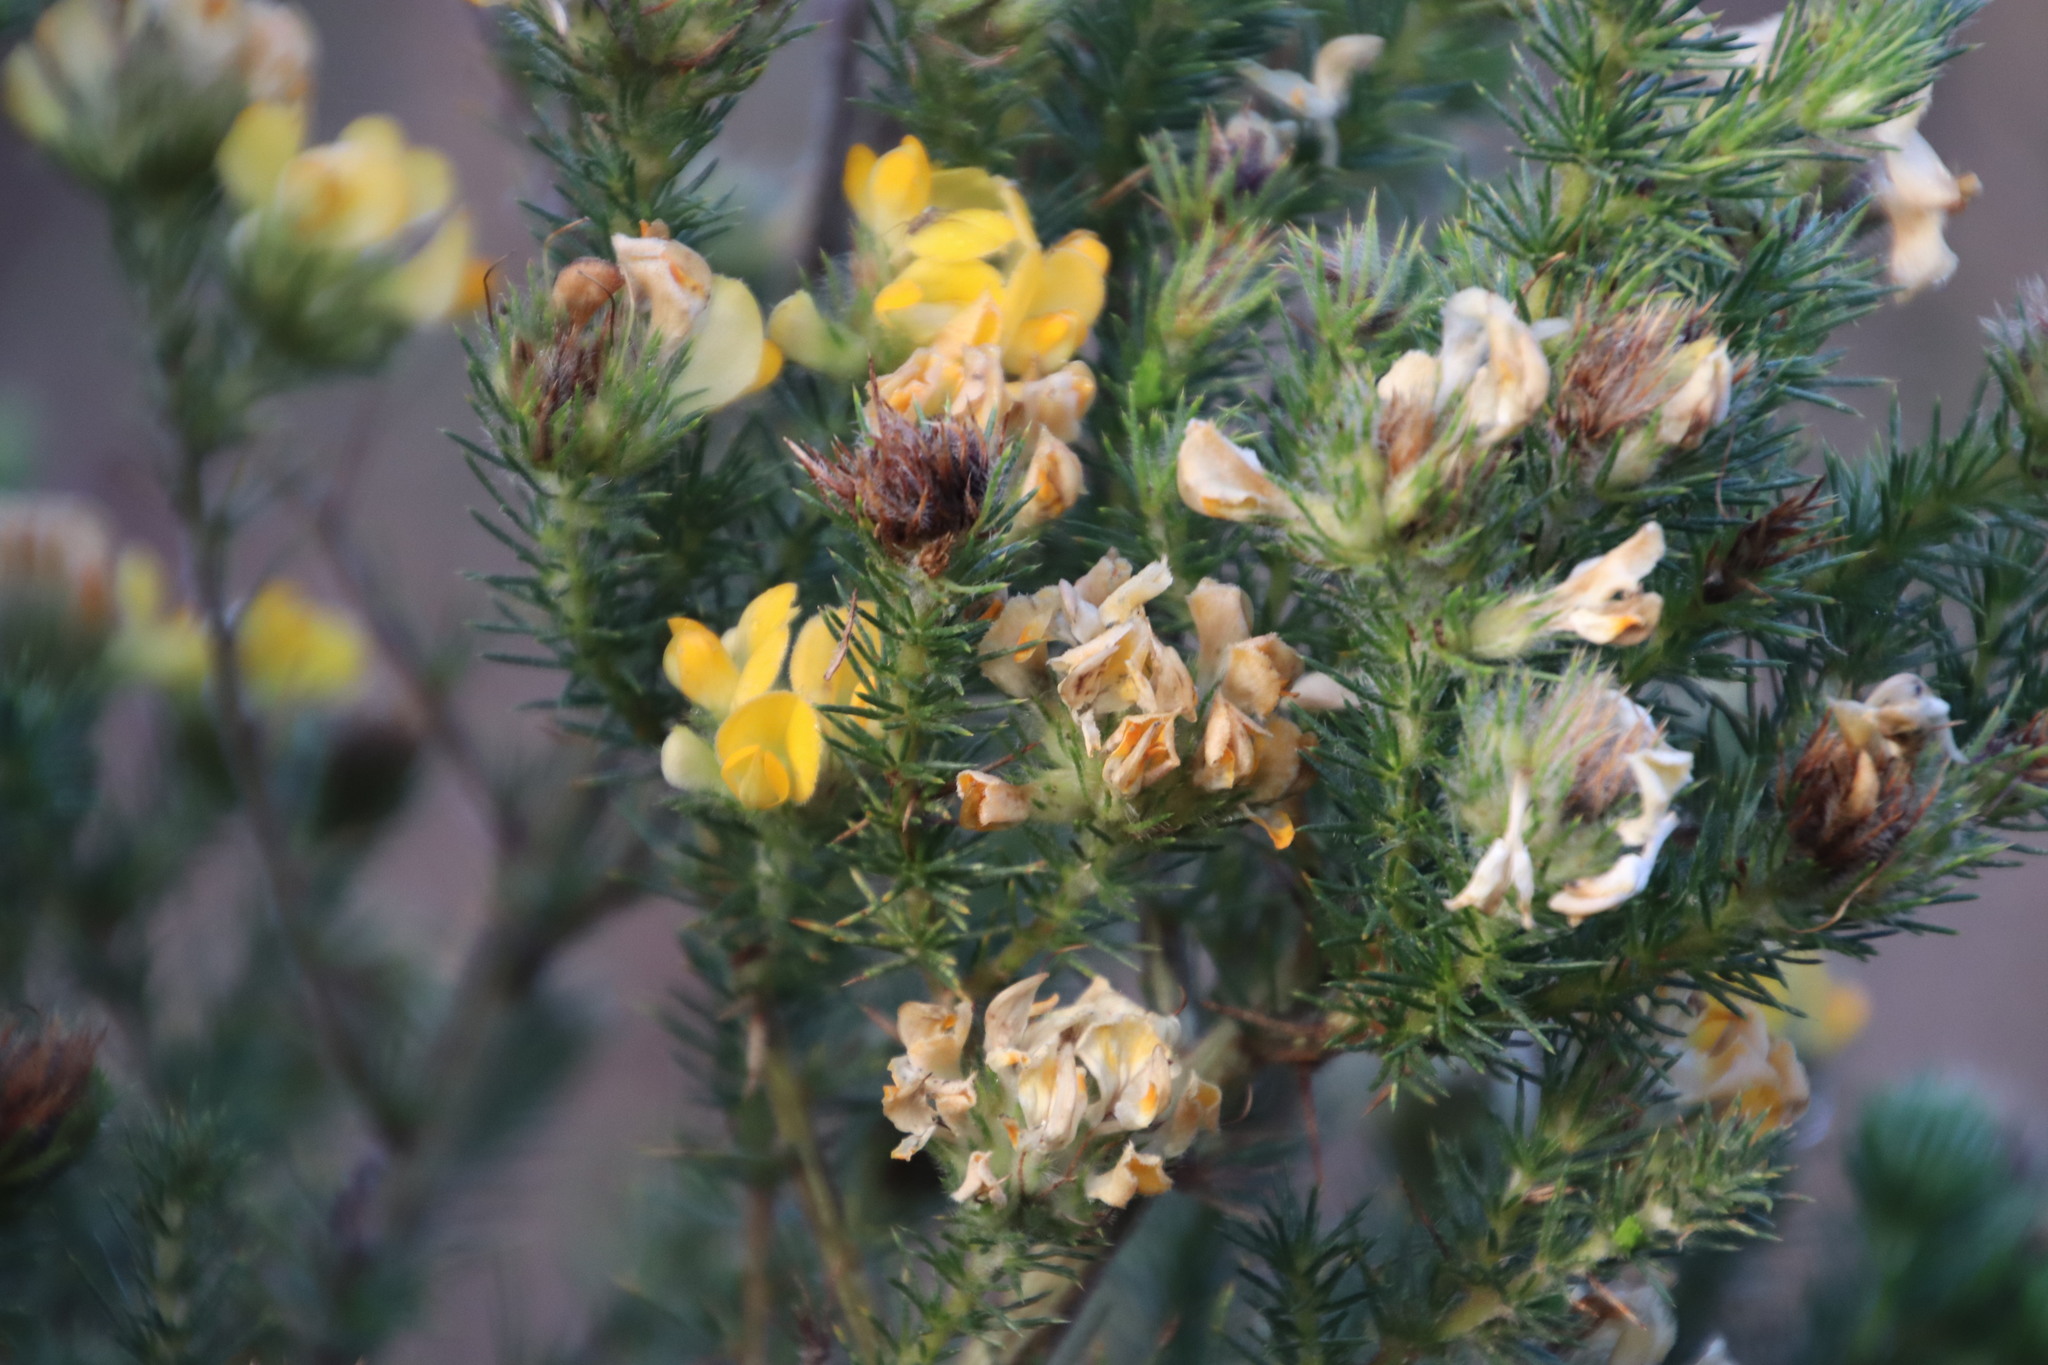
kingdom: Plantae
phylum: Tracheophyta
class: Magnoliopsida
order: Fabales
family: Fabaceae
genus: Aspalathus
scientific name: Aspalathus chenopoda
